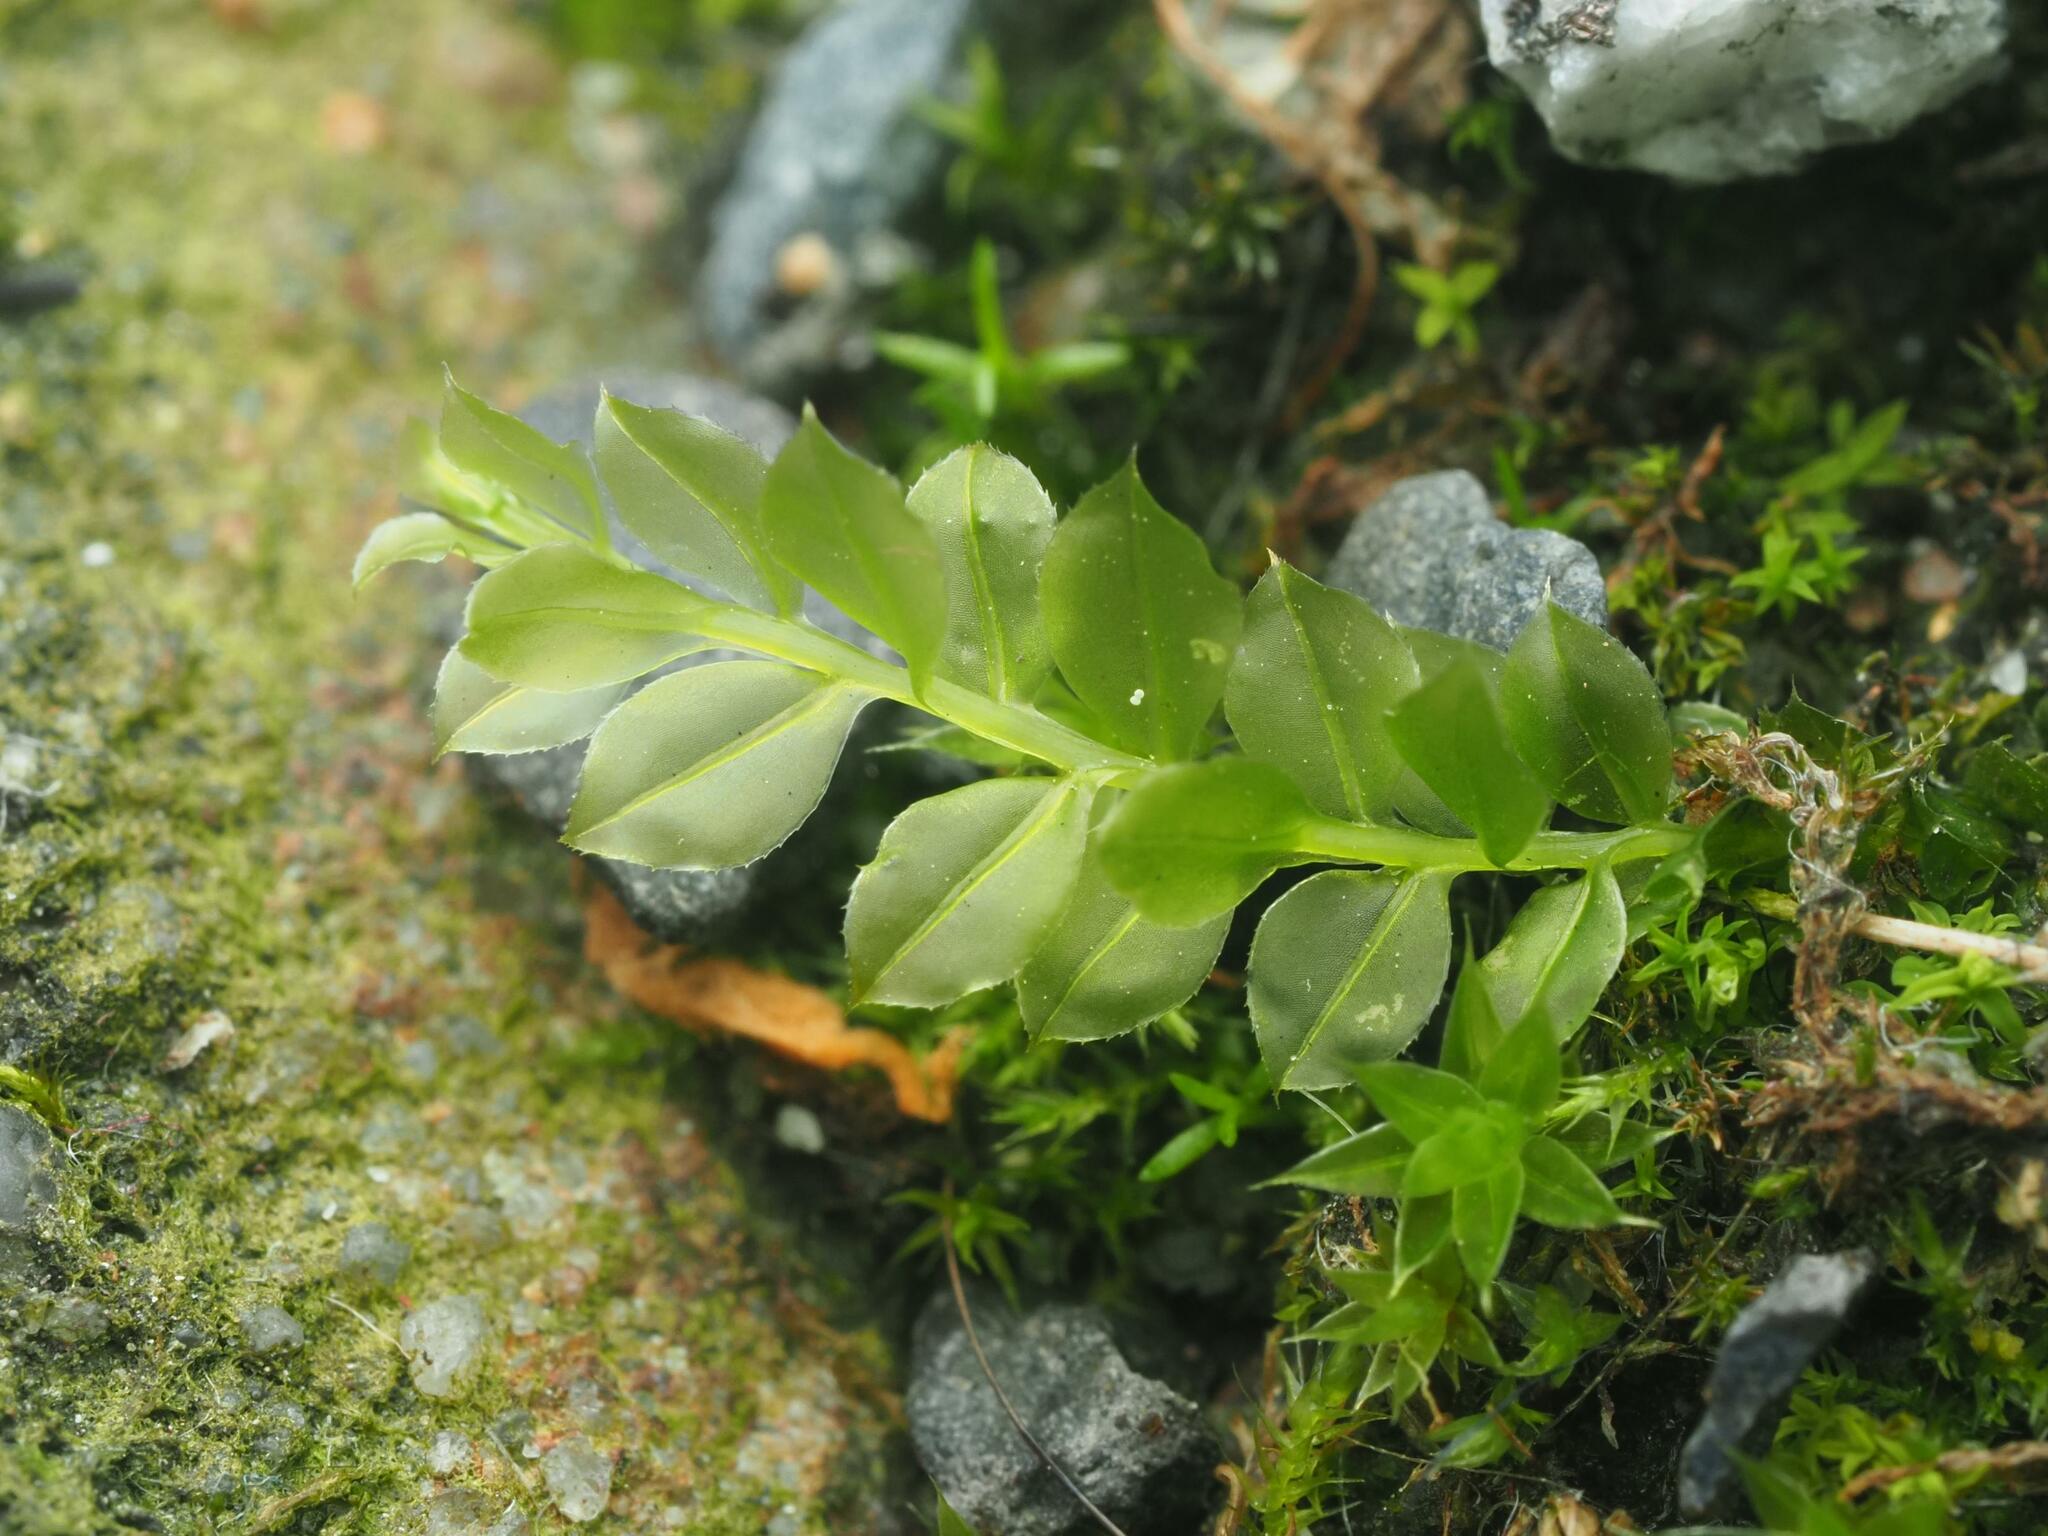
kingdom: Plantae
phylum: Bryophyta
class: Bryopsida
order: Bryales
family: Mniaceae
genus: Plagiomnium
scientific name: Plagiomnium cuspidatum
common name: Woodsy leafy moss
